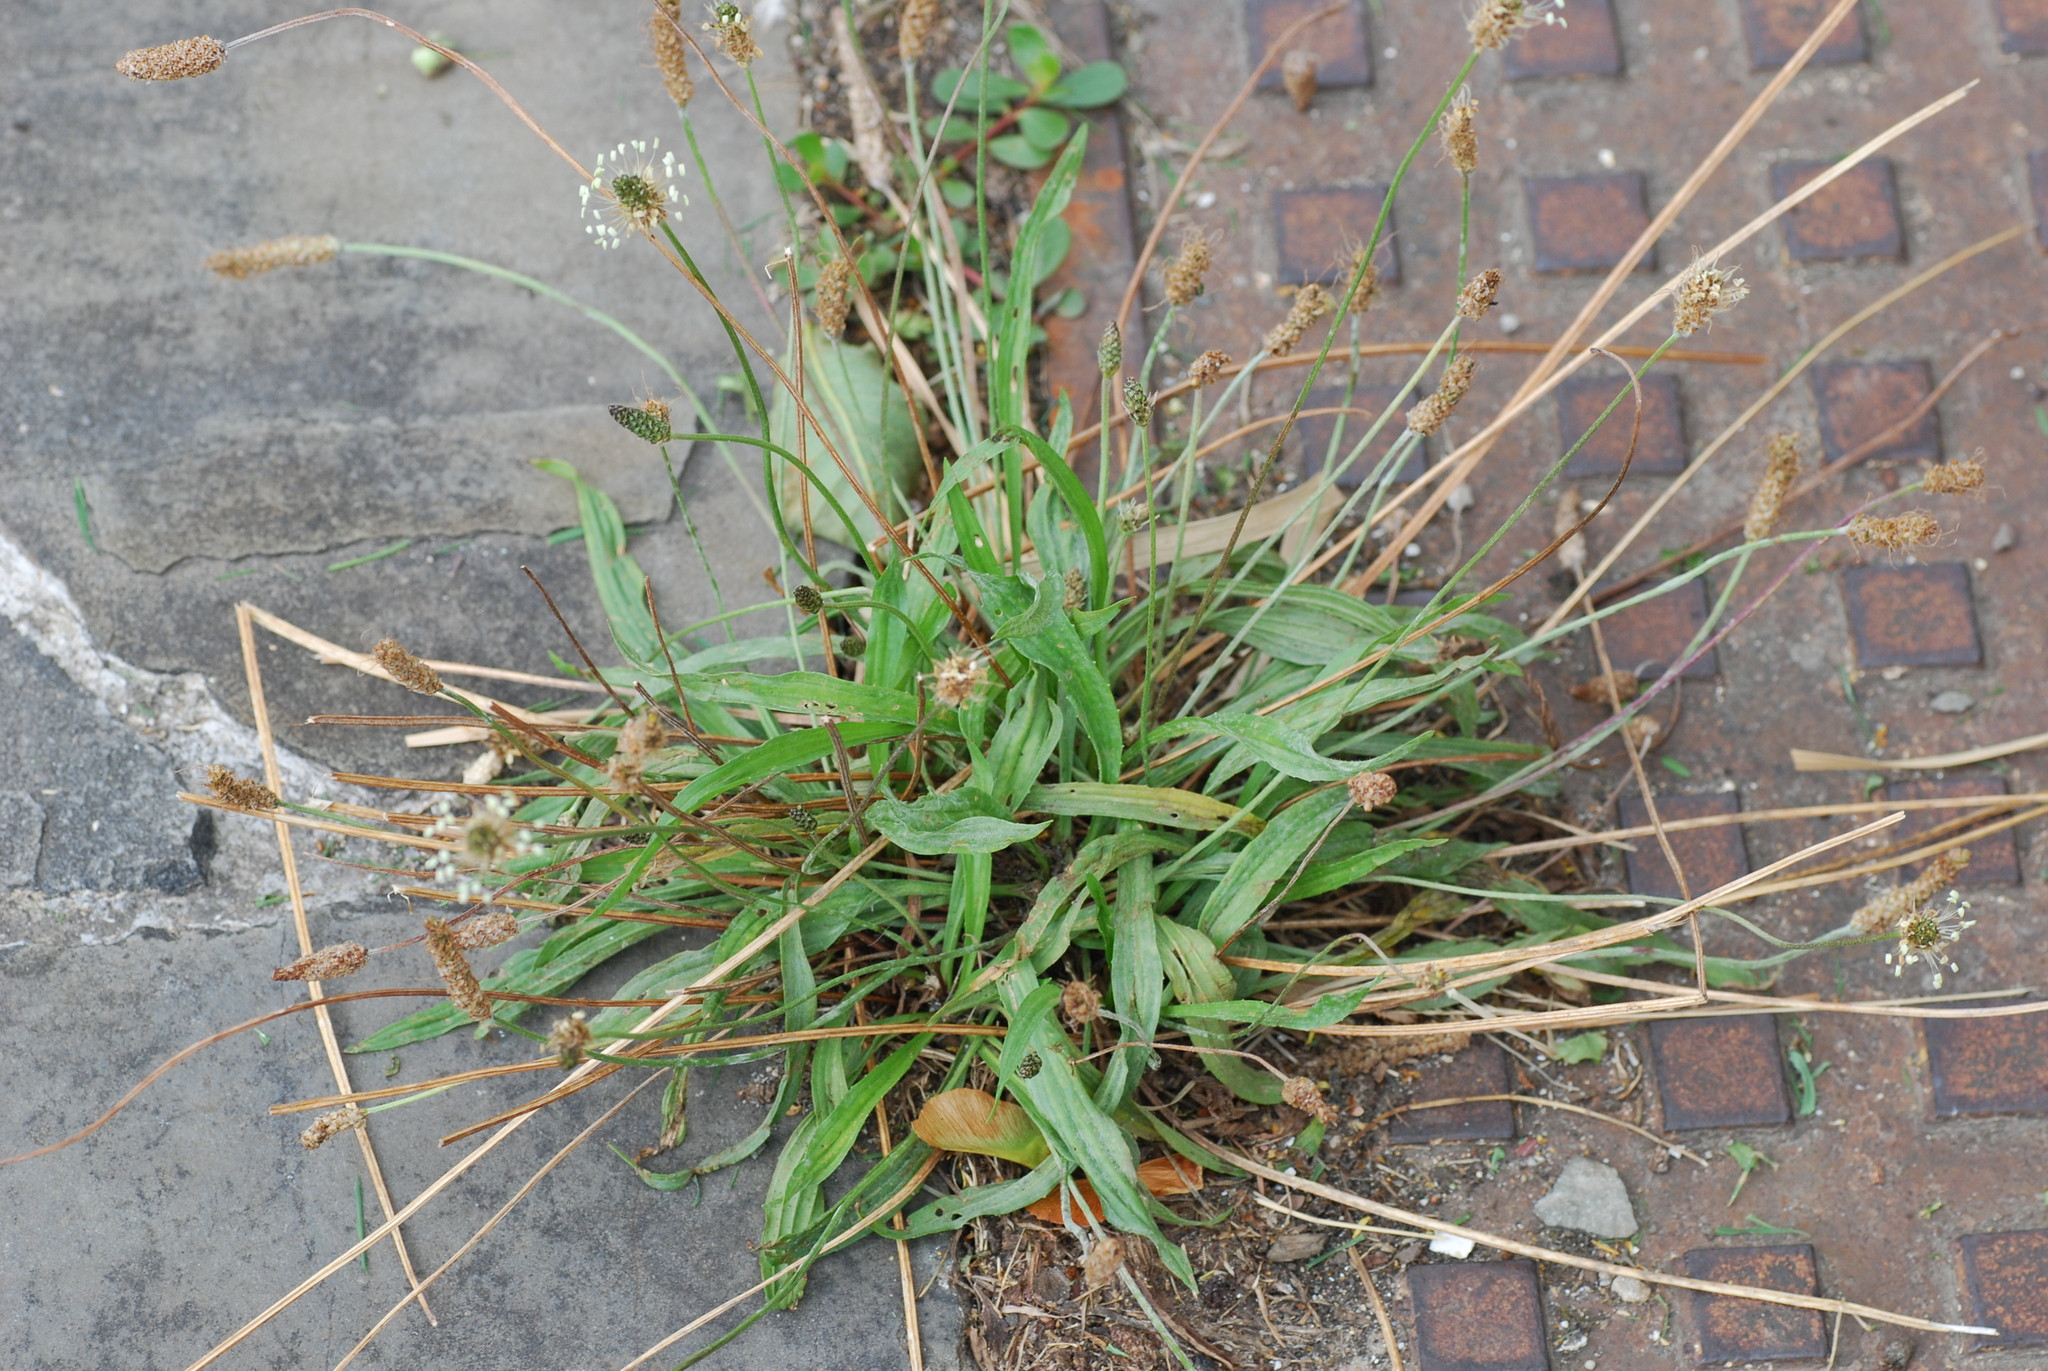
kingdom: Plantae
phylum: Tracheophyta
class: Magnoliopsida
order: Lamiales
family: Plantaginaceae
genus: Plantago
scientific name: Plantago lanceolata
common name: Ribwort plantain
